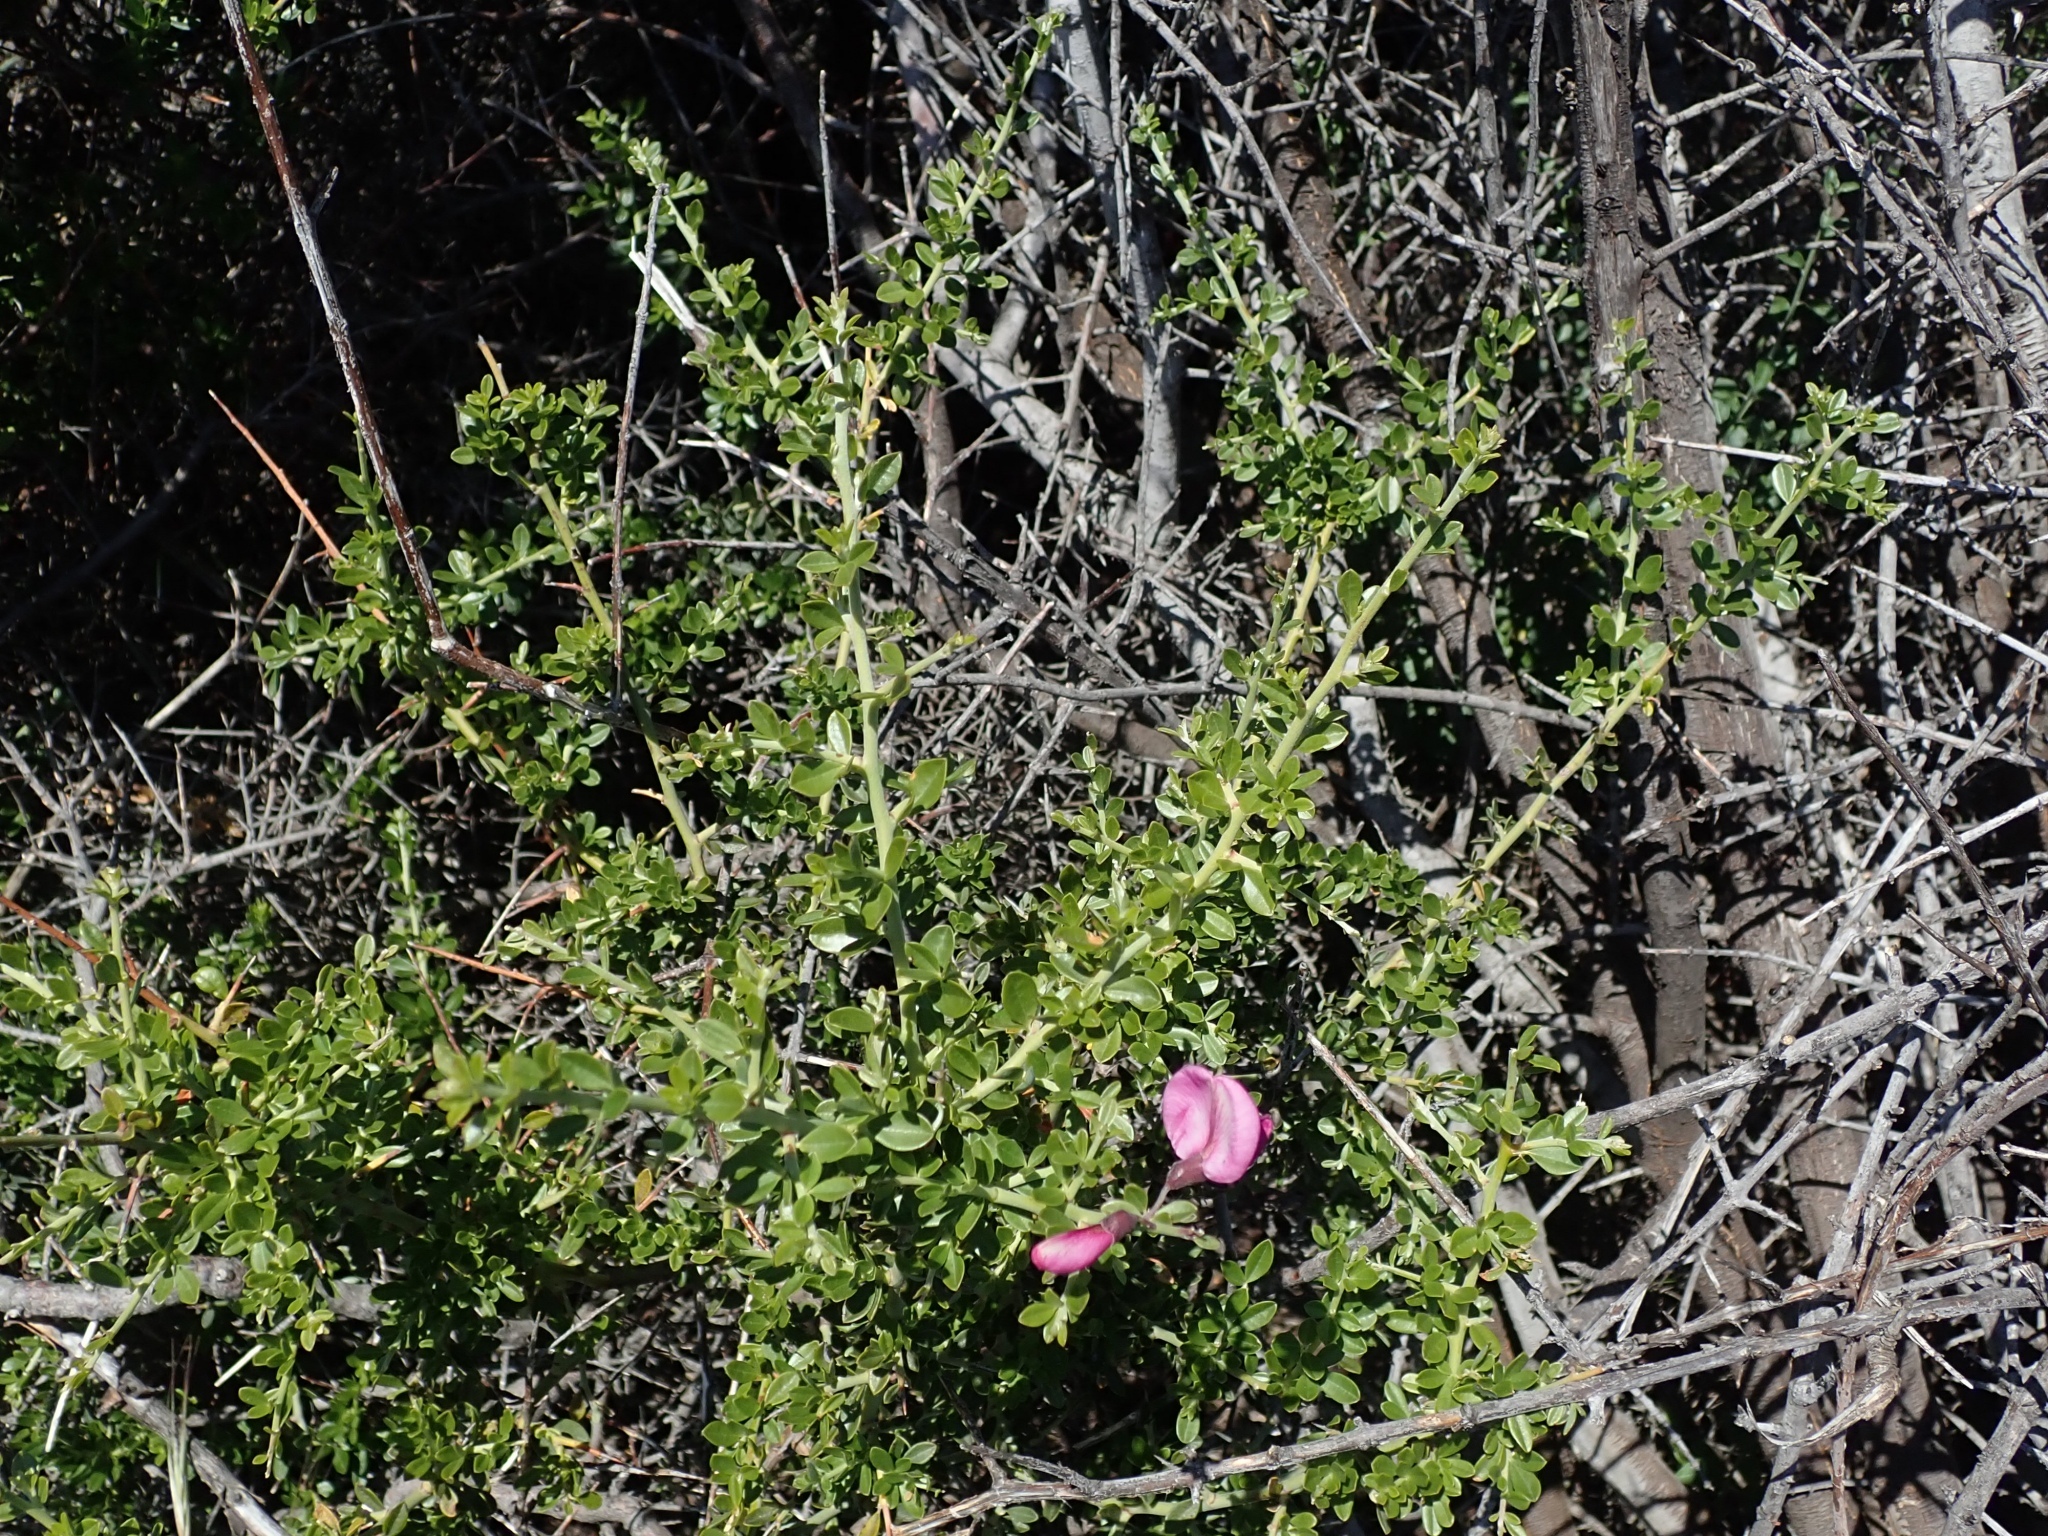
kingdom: Plantae
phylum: Tracheophyta
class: Magnoliopsida
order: Fabales
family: Fabaceae
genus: Pickeringia
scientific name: Pickeringia montana
